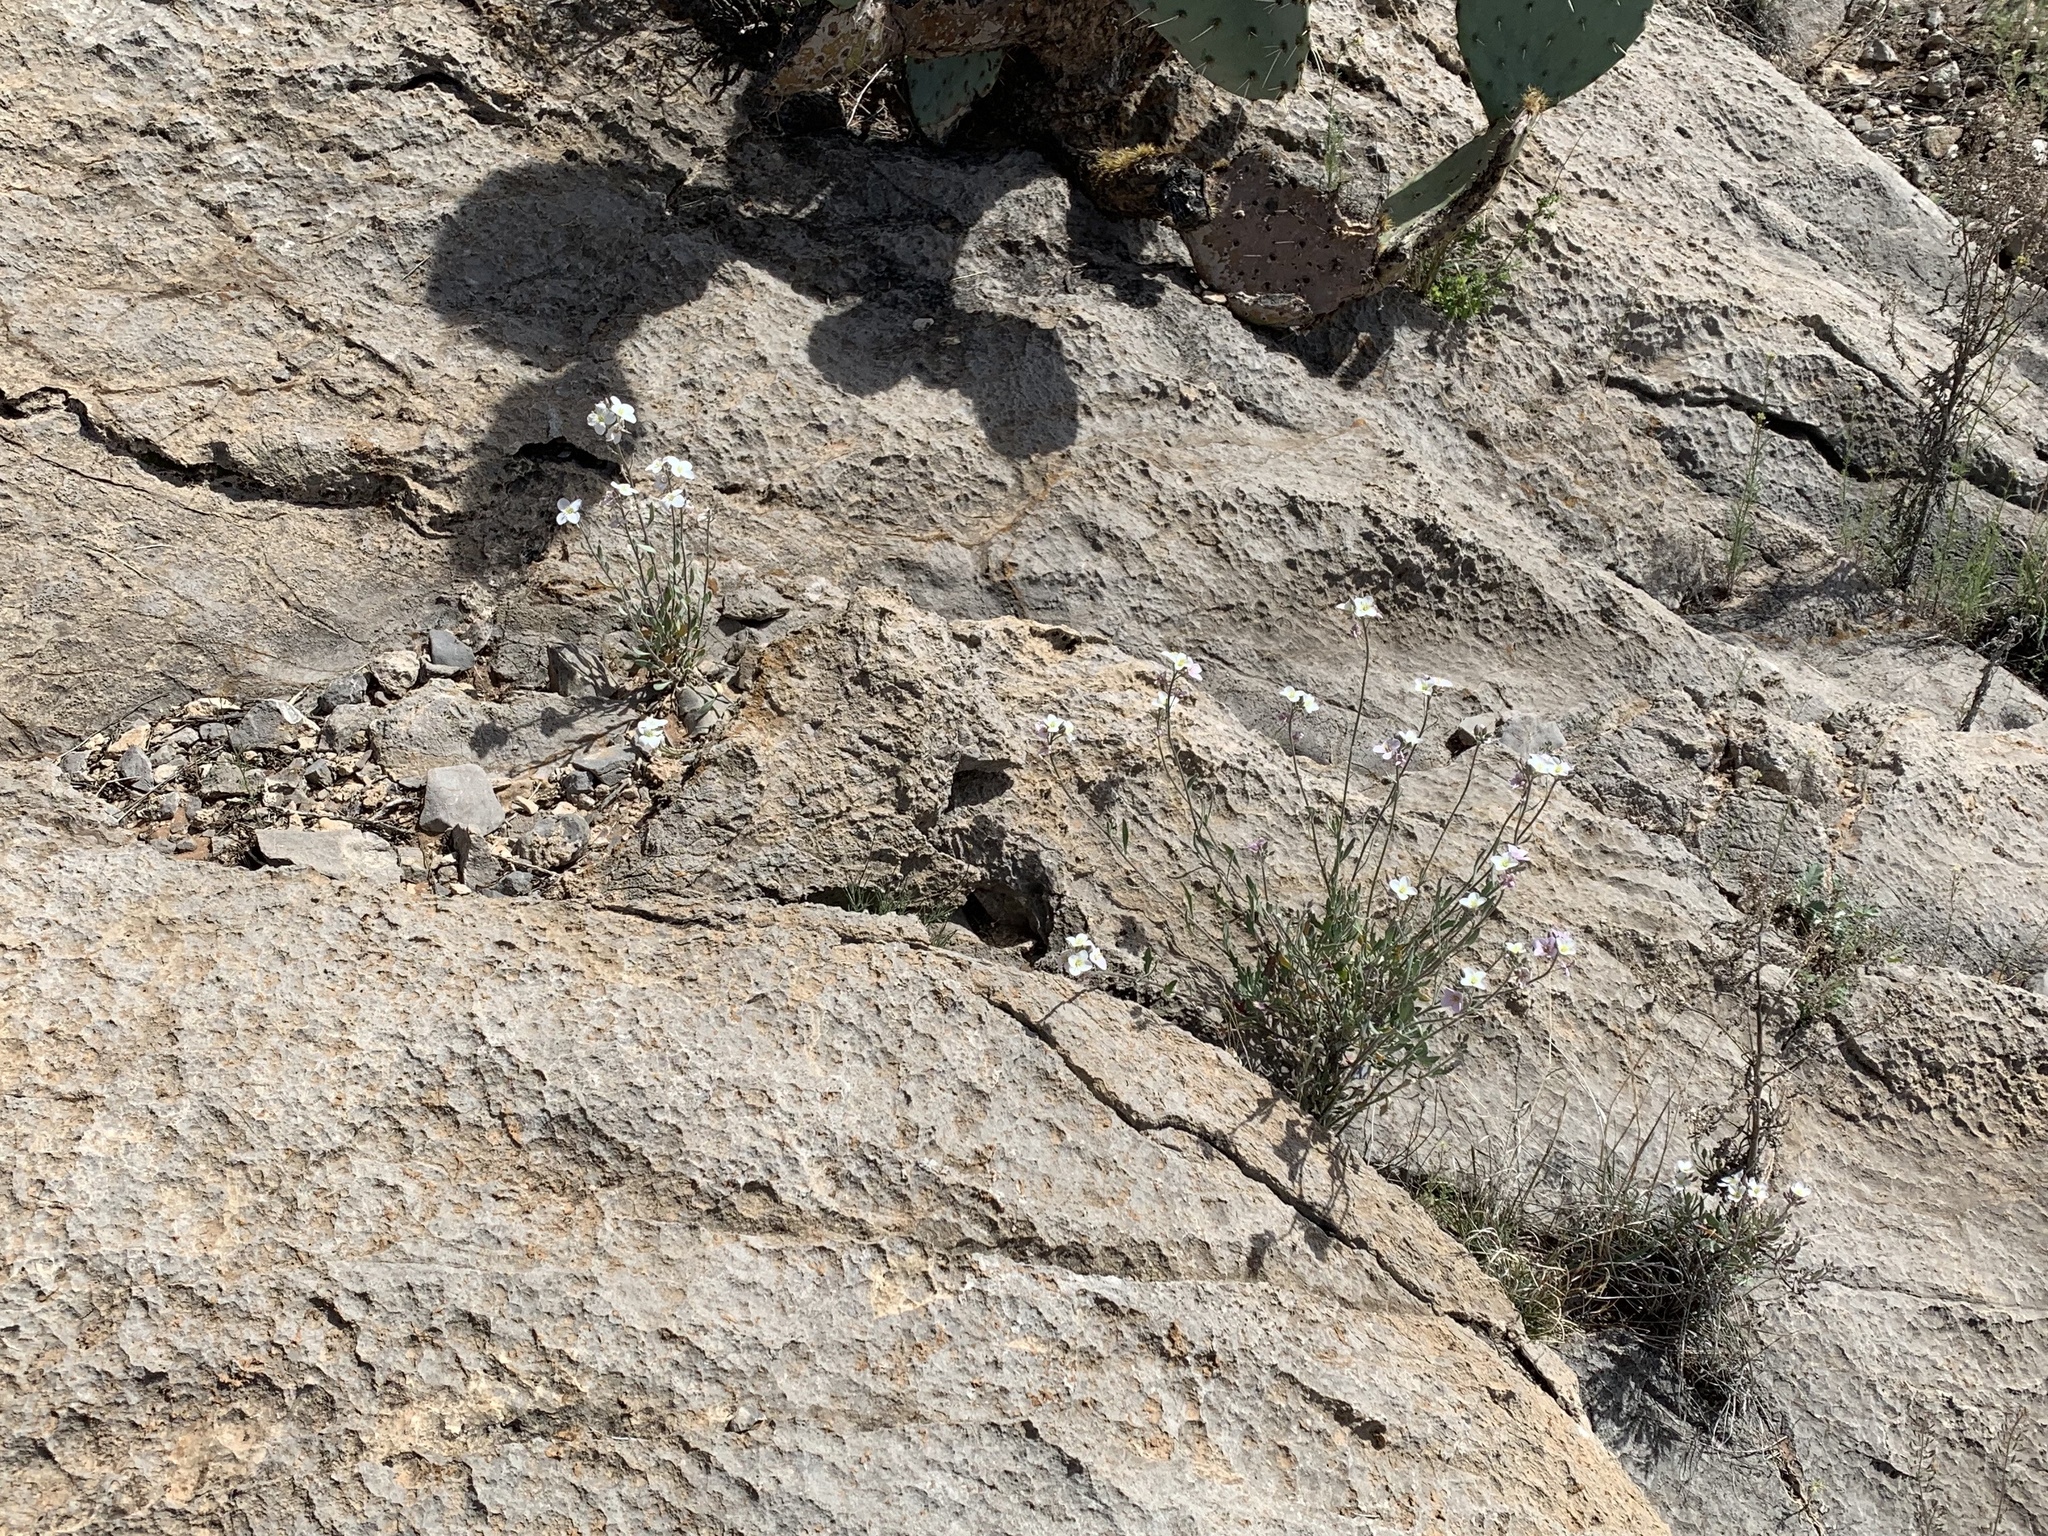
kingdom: Plantae
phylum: Tracheophyta
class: Magnoliopsida
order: Brassicales
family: Brassicaceae
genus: Nerisyrenia
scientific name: Nerisyrenia camporum
